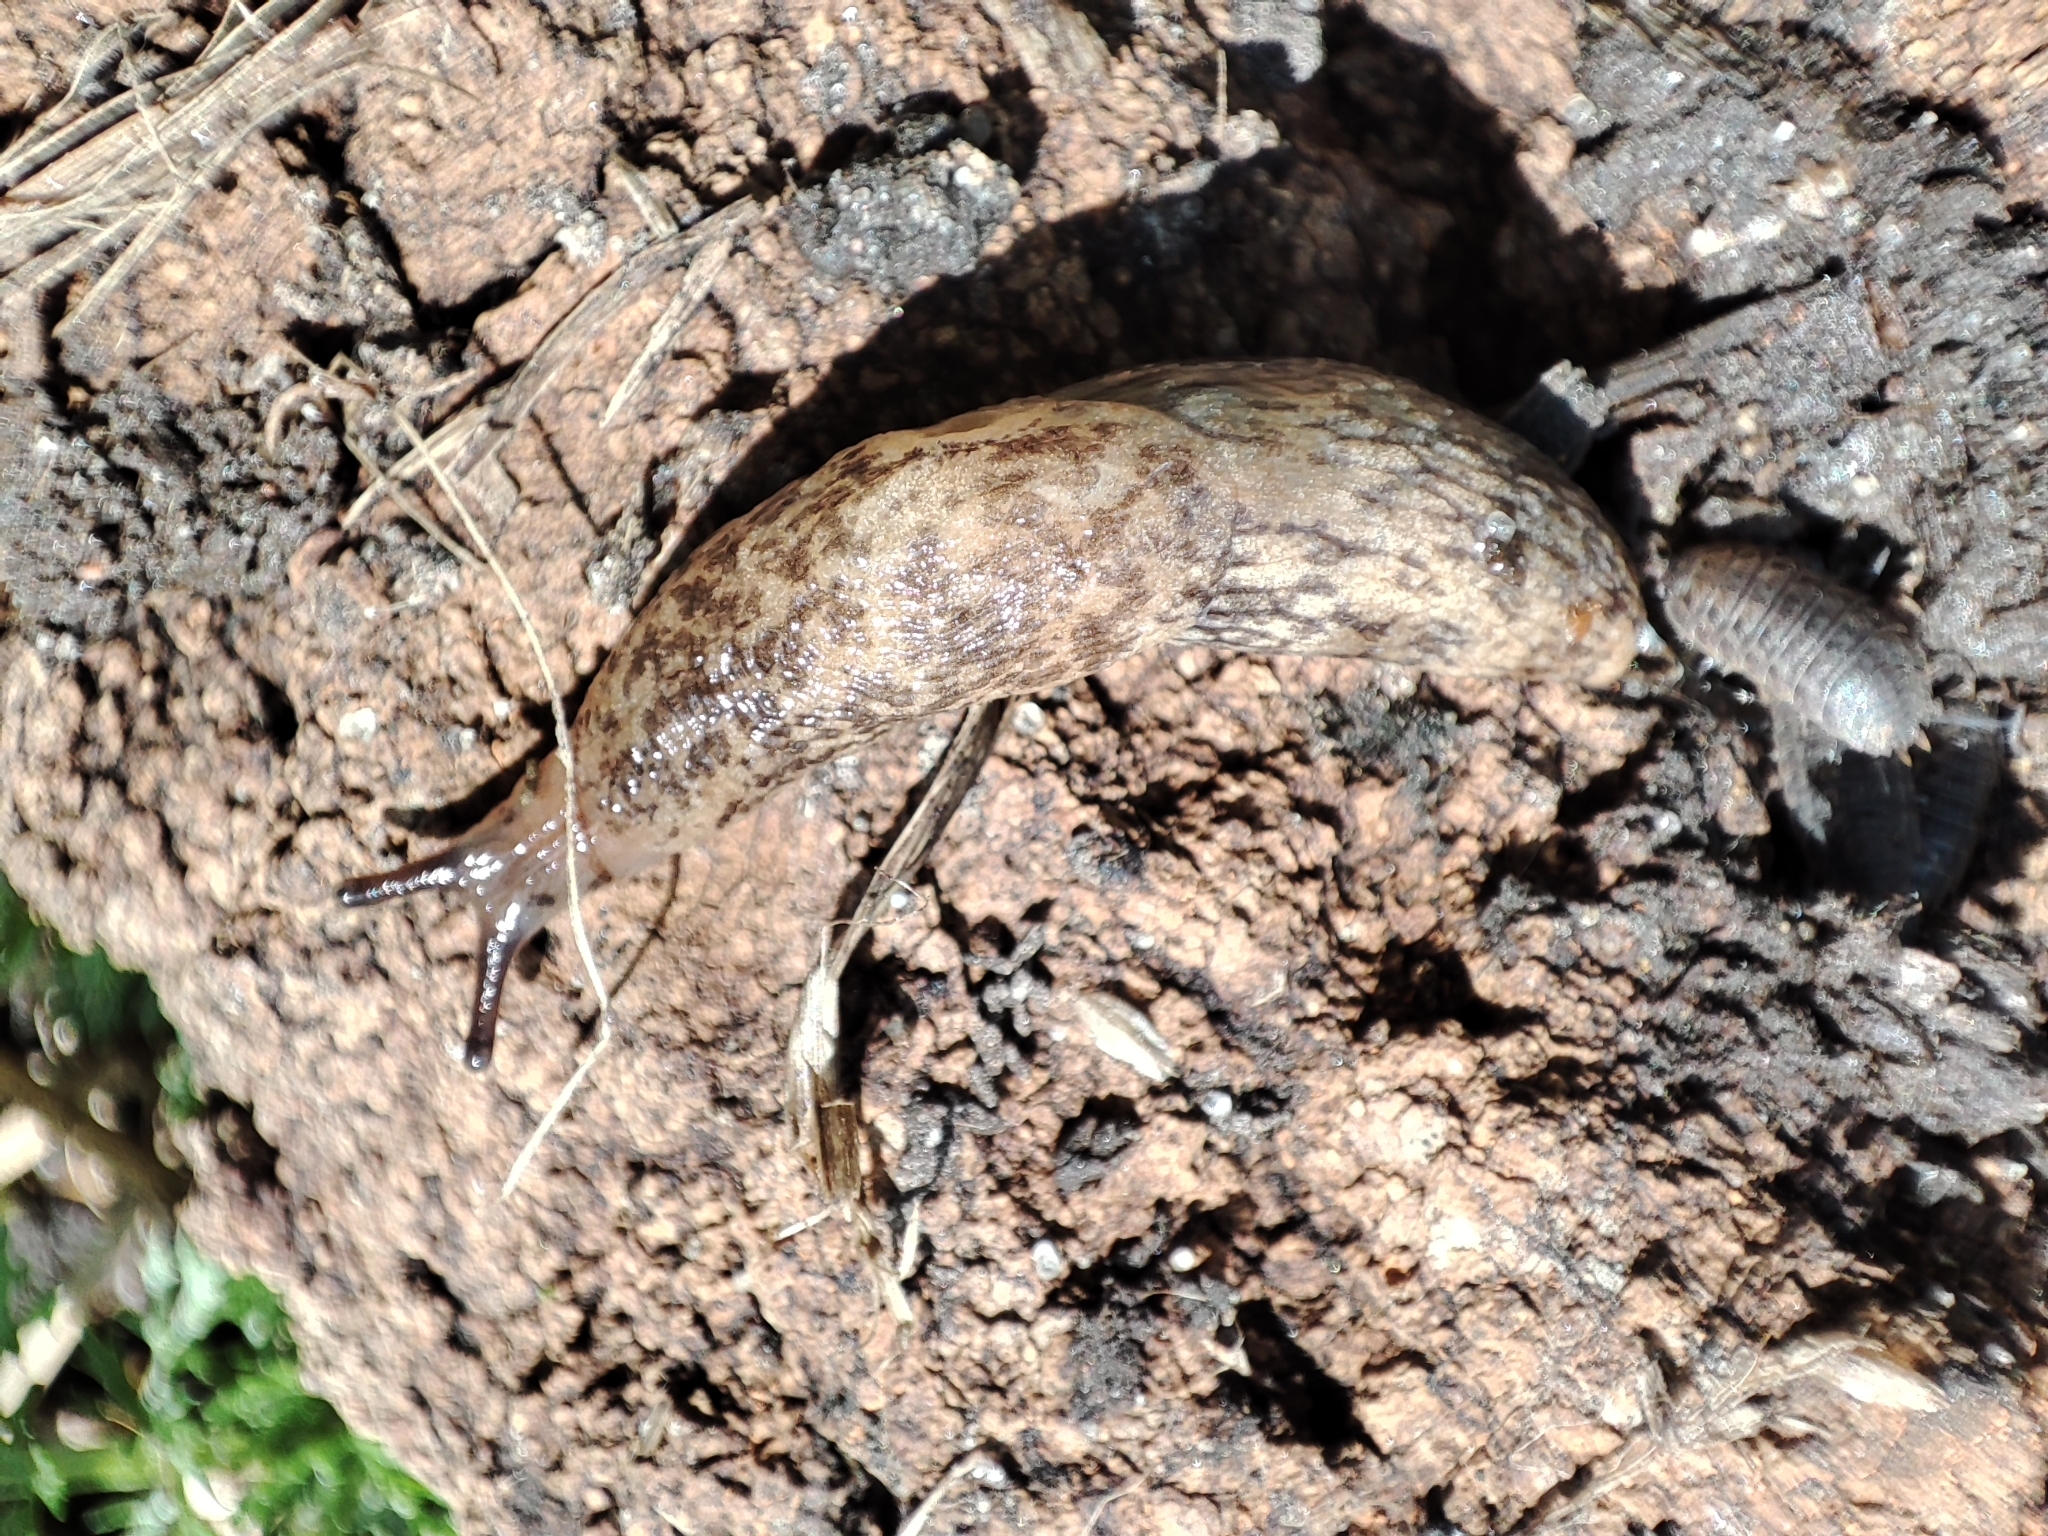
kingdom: Animalia
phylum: Mollusca
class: Gastropoda
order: Stylommatophora
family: Agriolimacidae
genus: Deroceras
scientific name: Deroceras reticulatum
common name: Gray field slug
